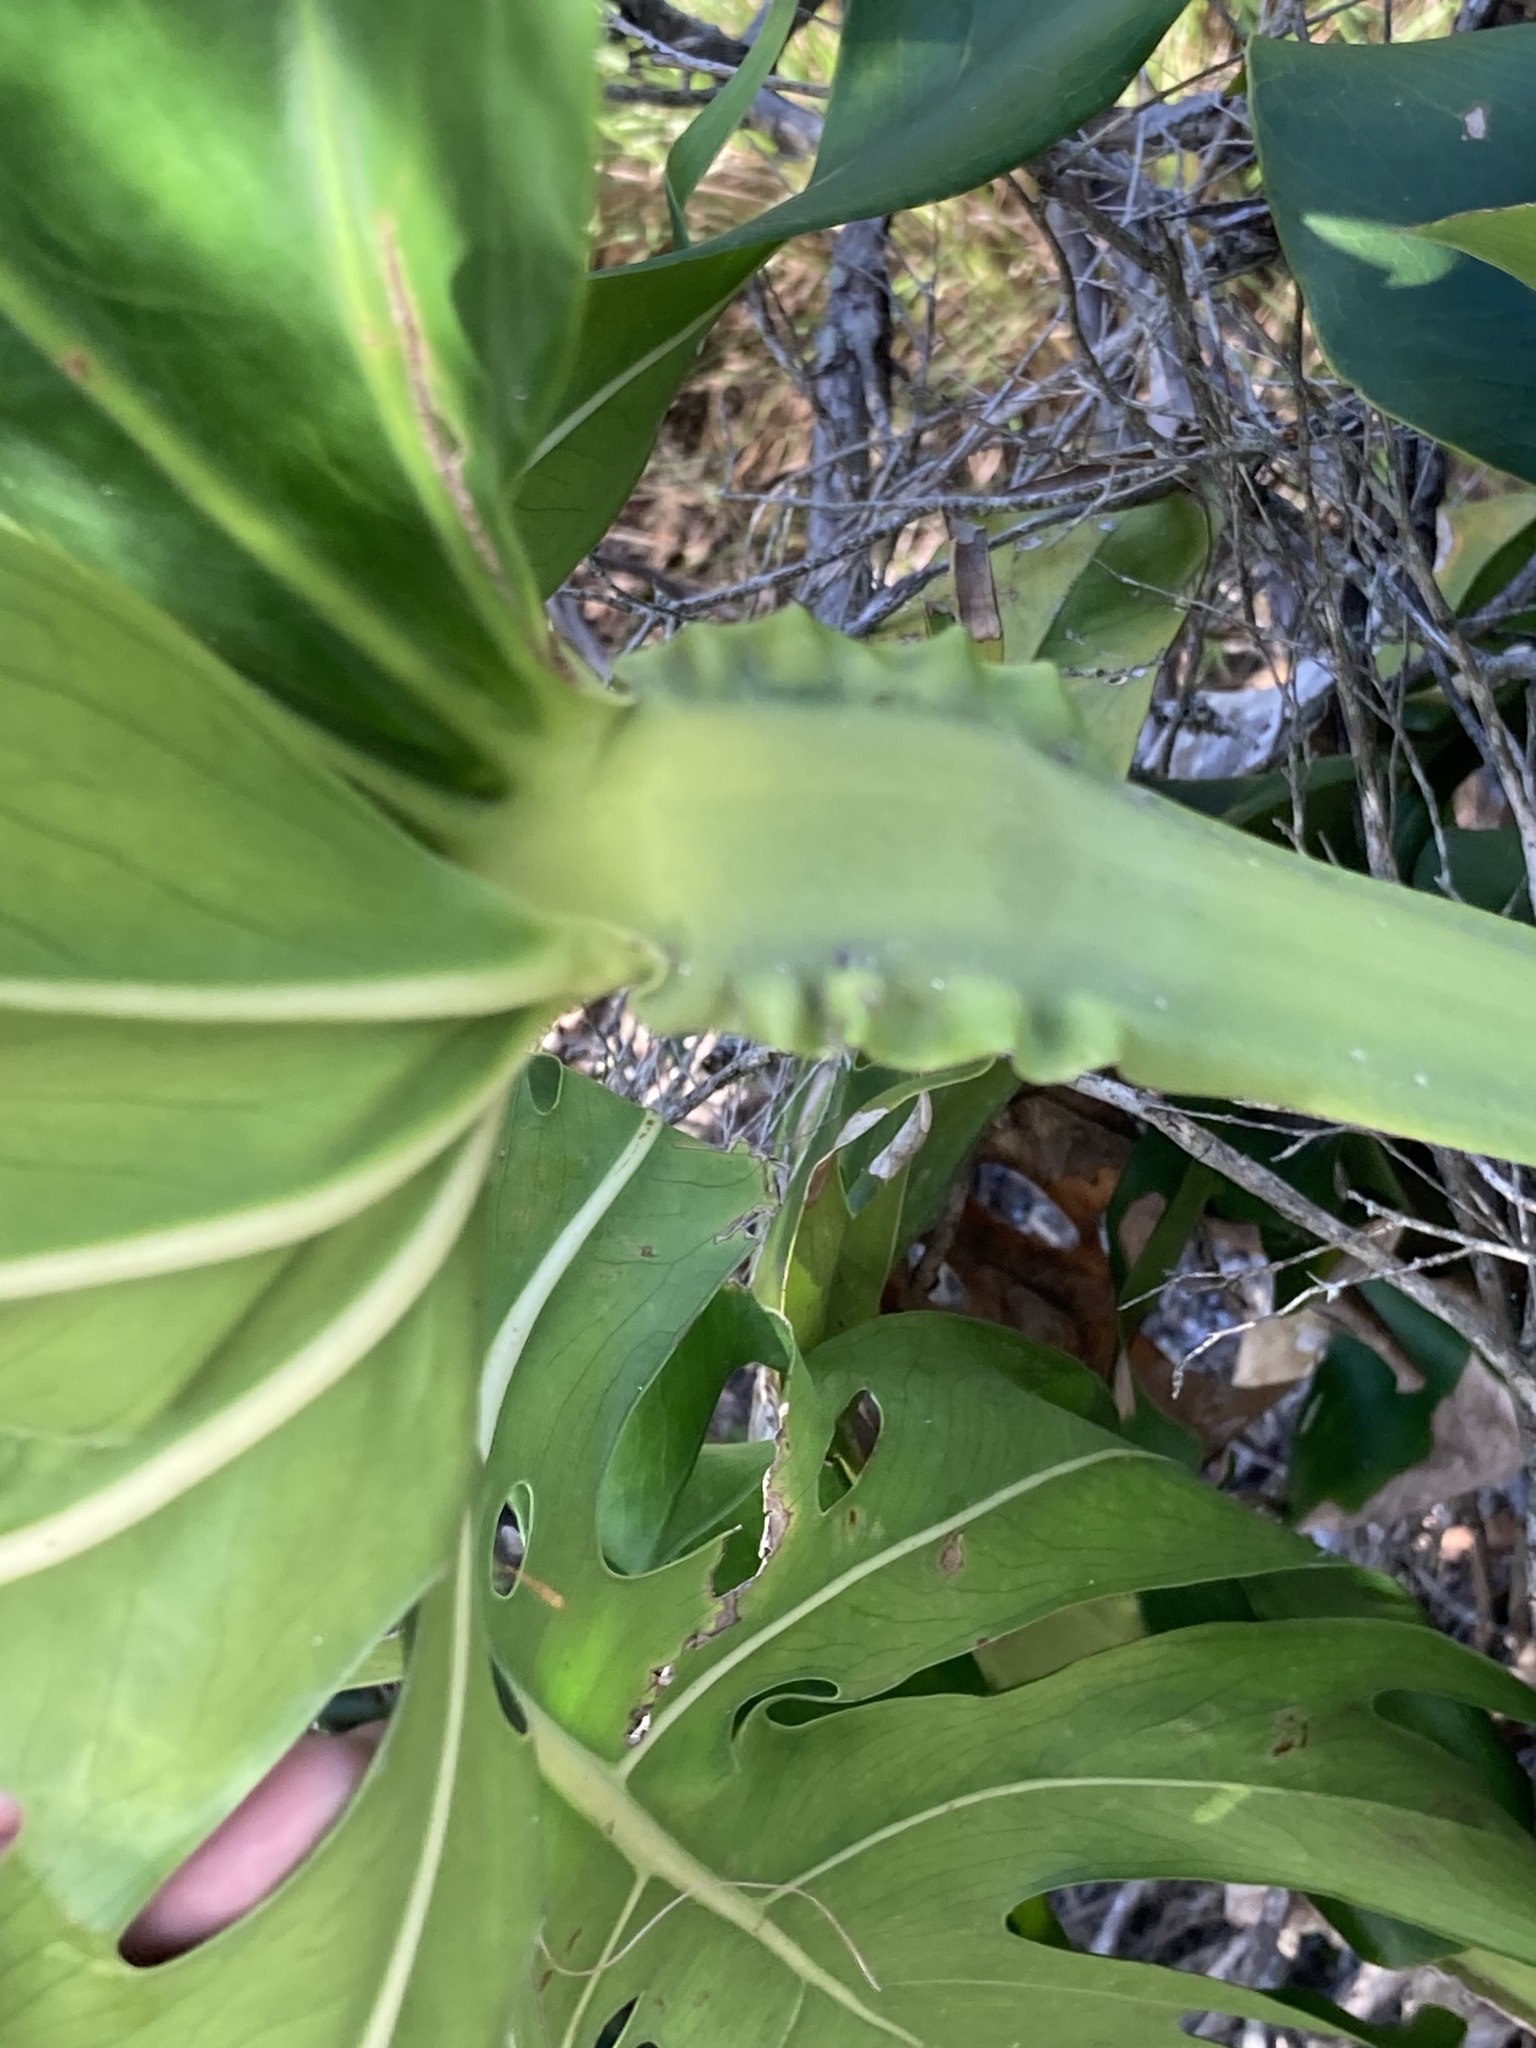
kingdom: Plantae
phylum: Tracheophyta
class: Liliopsida
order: Alismatales
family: Araceae
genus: Monstera
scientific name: Monstera deliciosa
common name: Cut-leaf-philodendron
